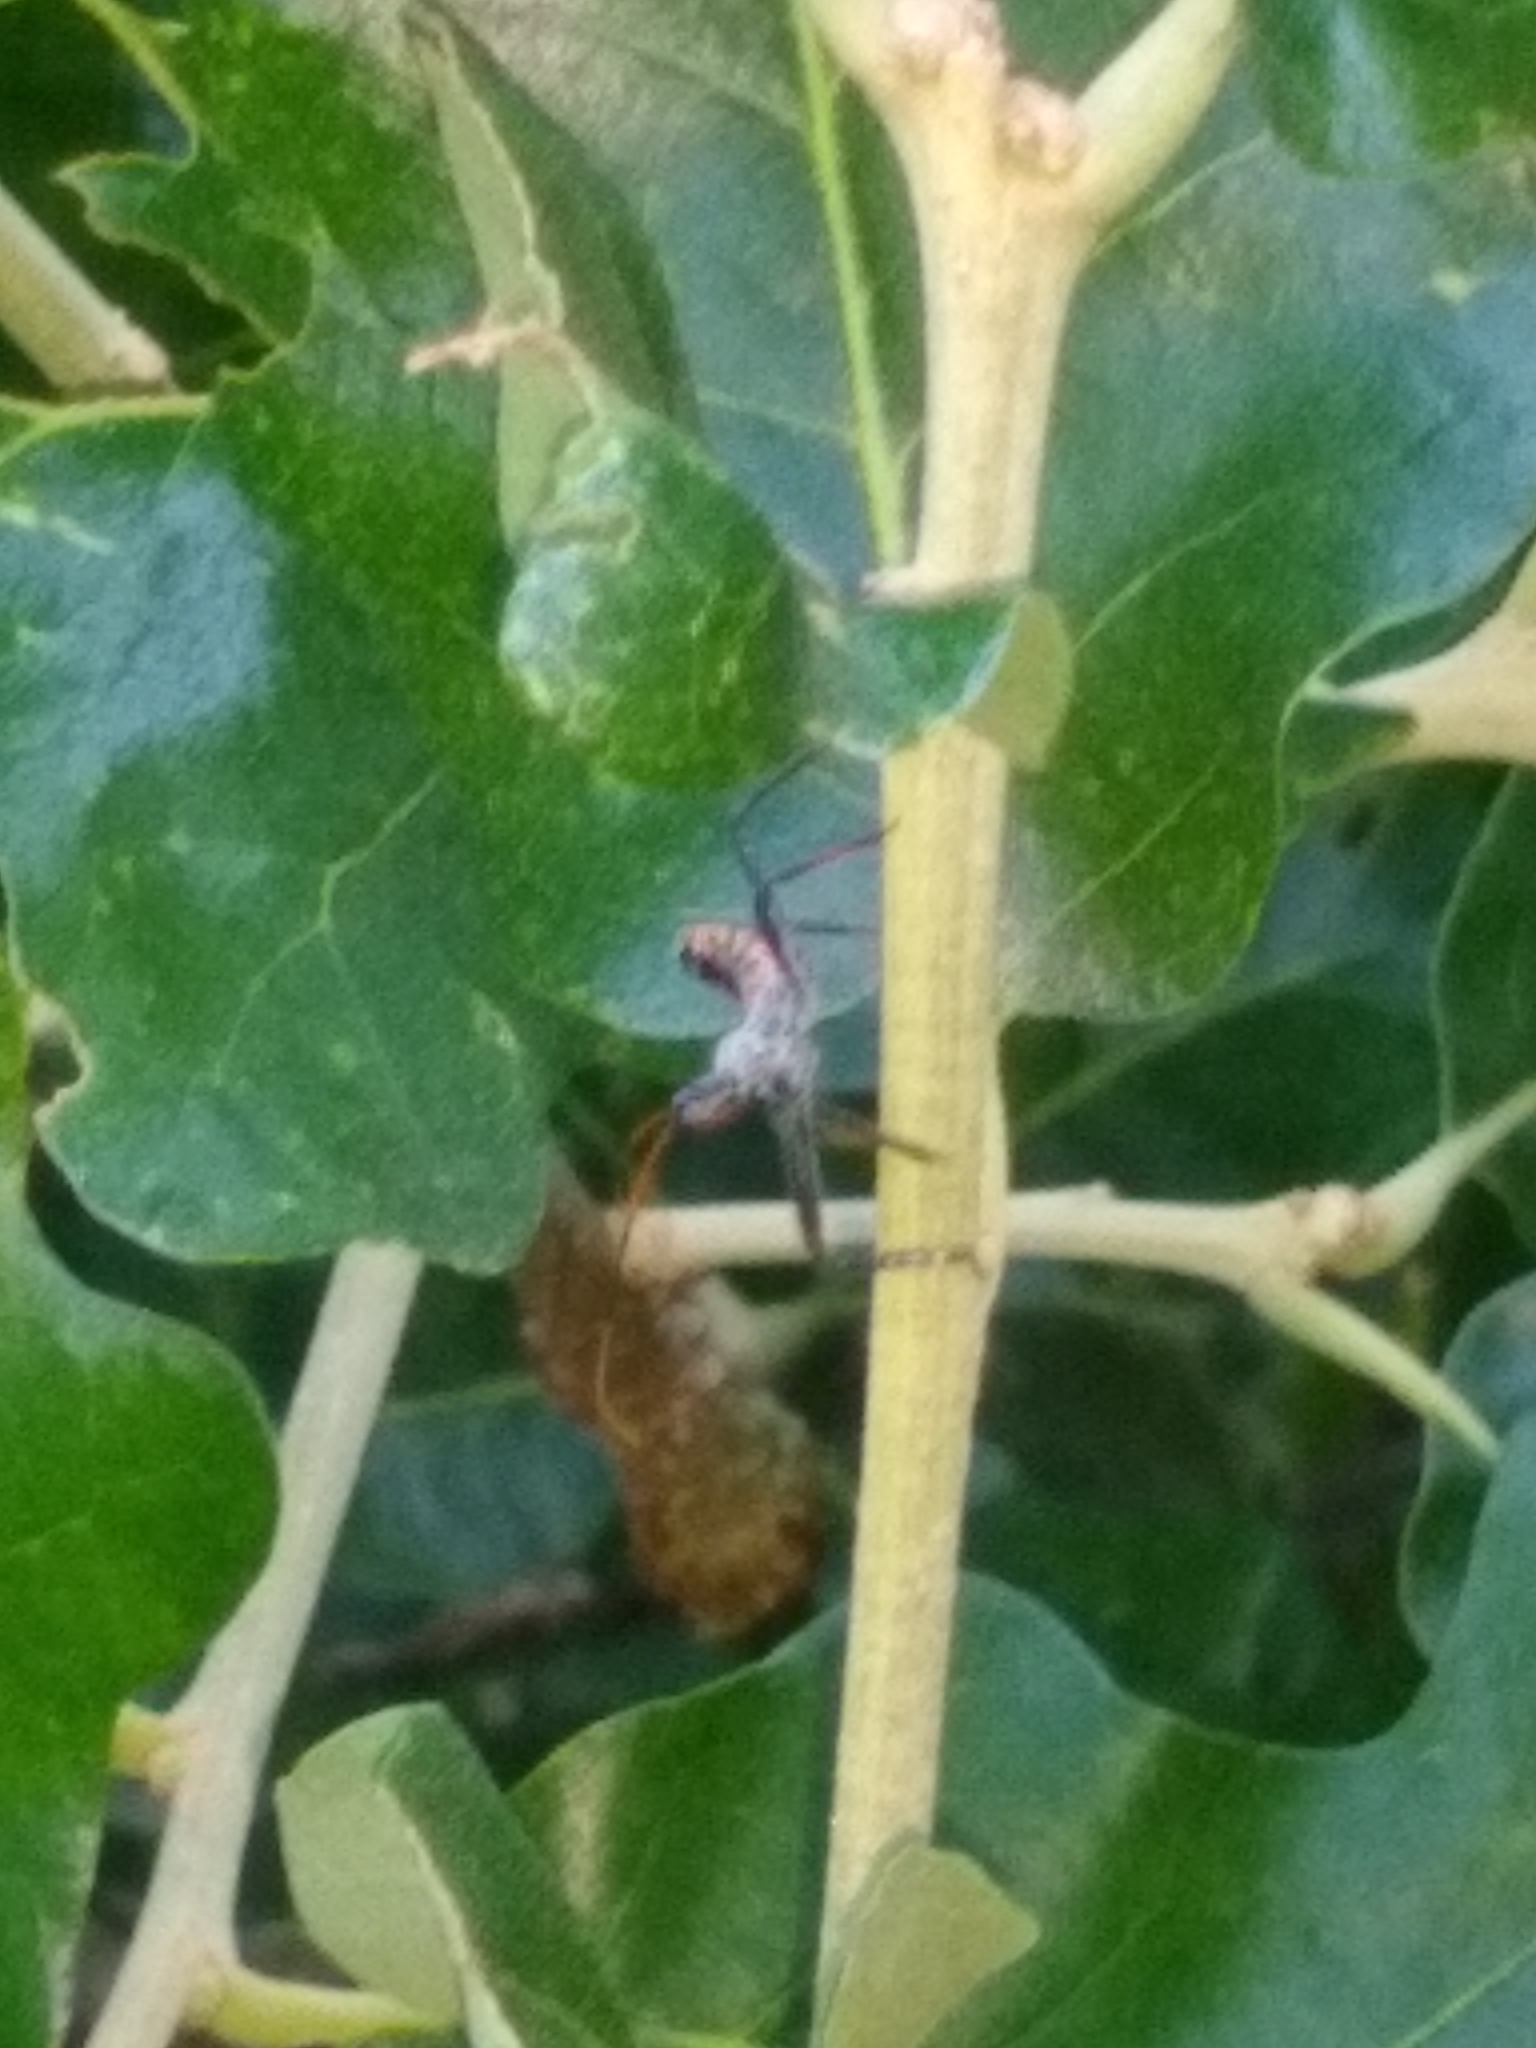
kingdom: Animalia
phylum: Arthropoda
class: Insecta
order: Hemiptera
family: Reduviidae
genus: Arilus
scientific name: Arilus cristatus
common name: North american wheel bug
